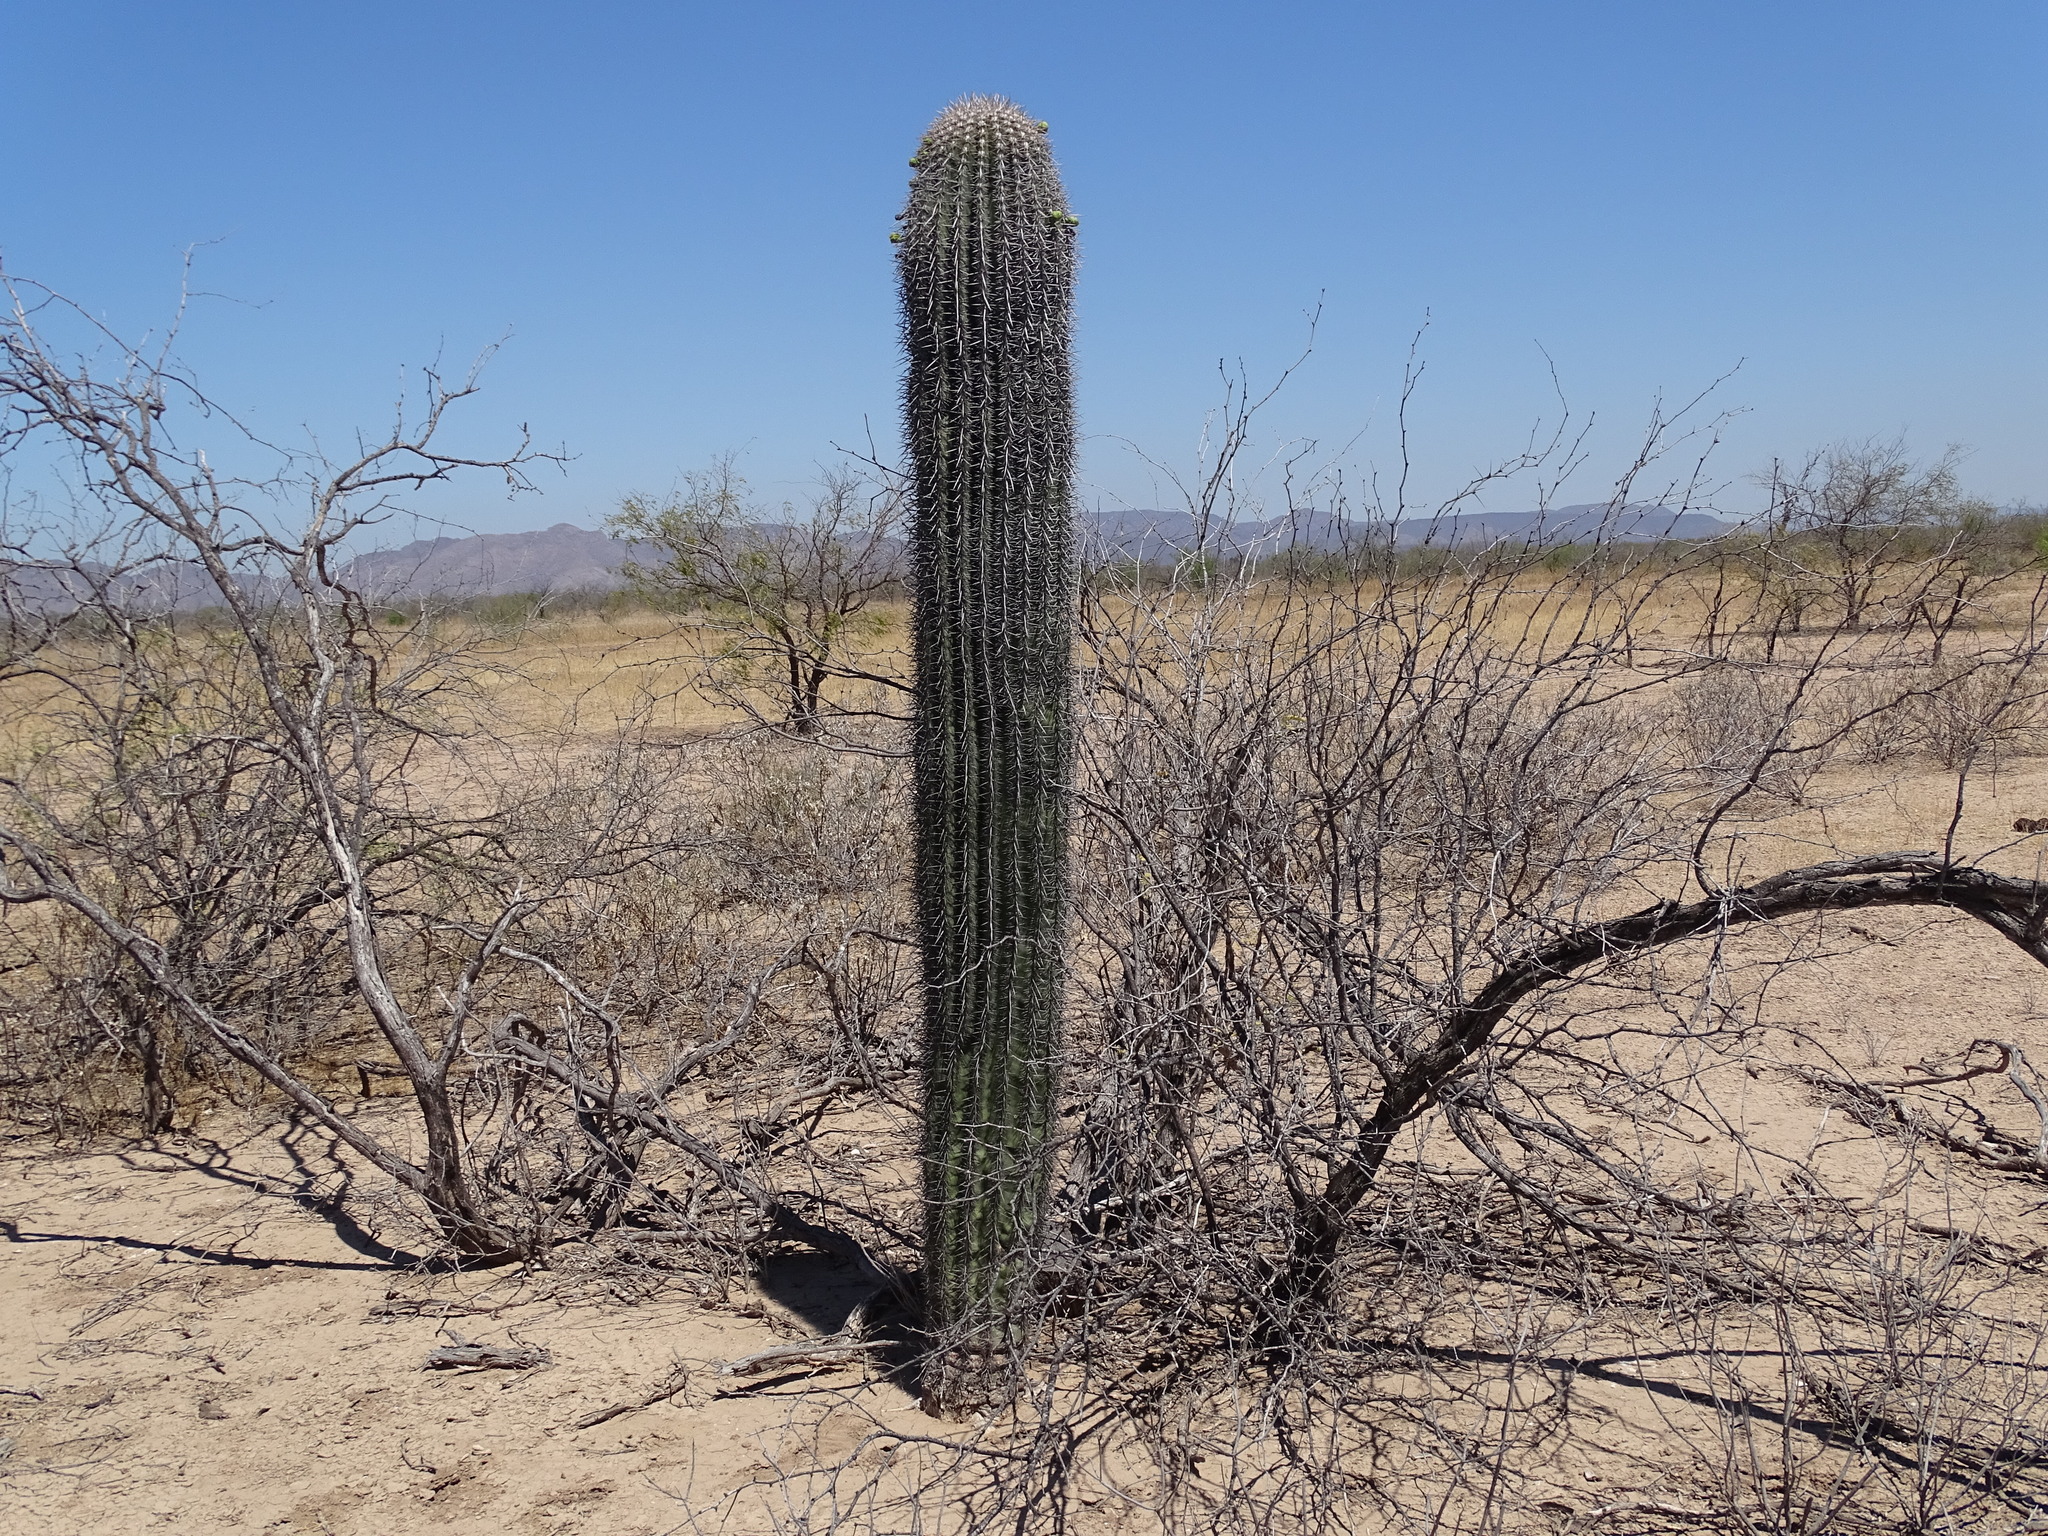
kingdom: Plantae
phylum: Tracheophyta
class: Magnoliopsida
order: Caryophyllales
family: Cactaceae
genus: Carnegiea
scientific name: Carnegiea gigantea
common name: Saguaro
